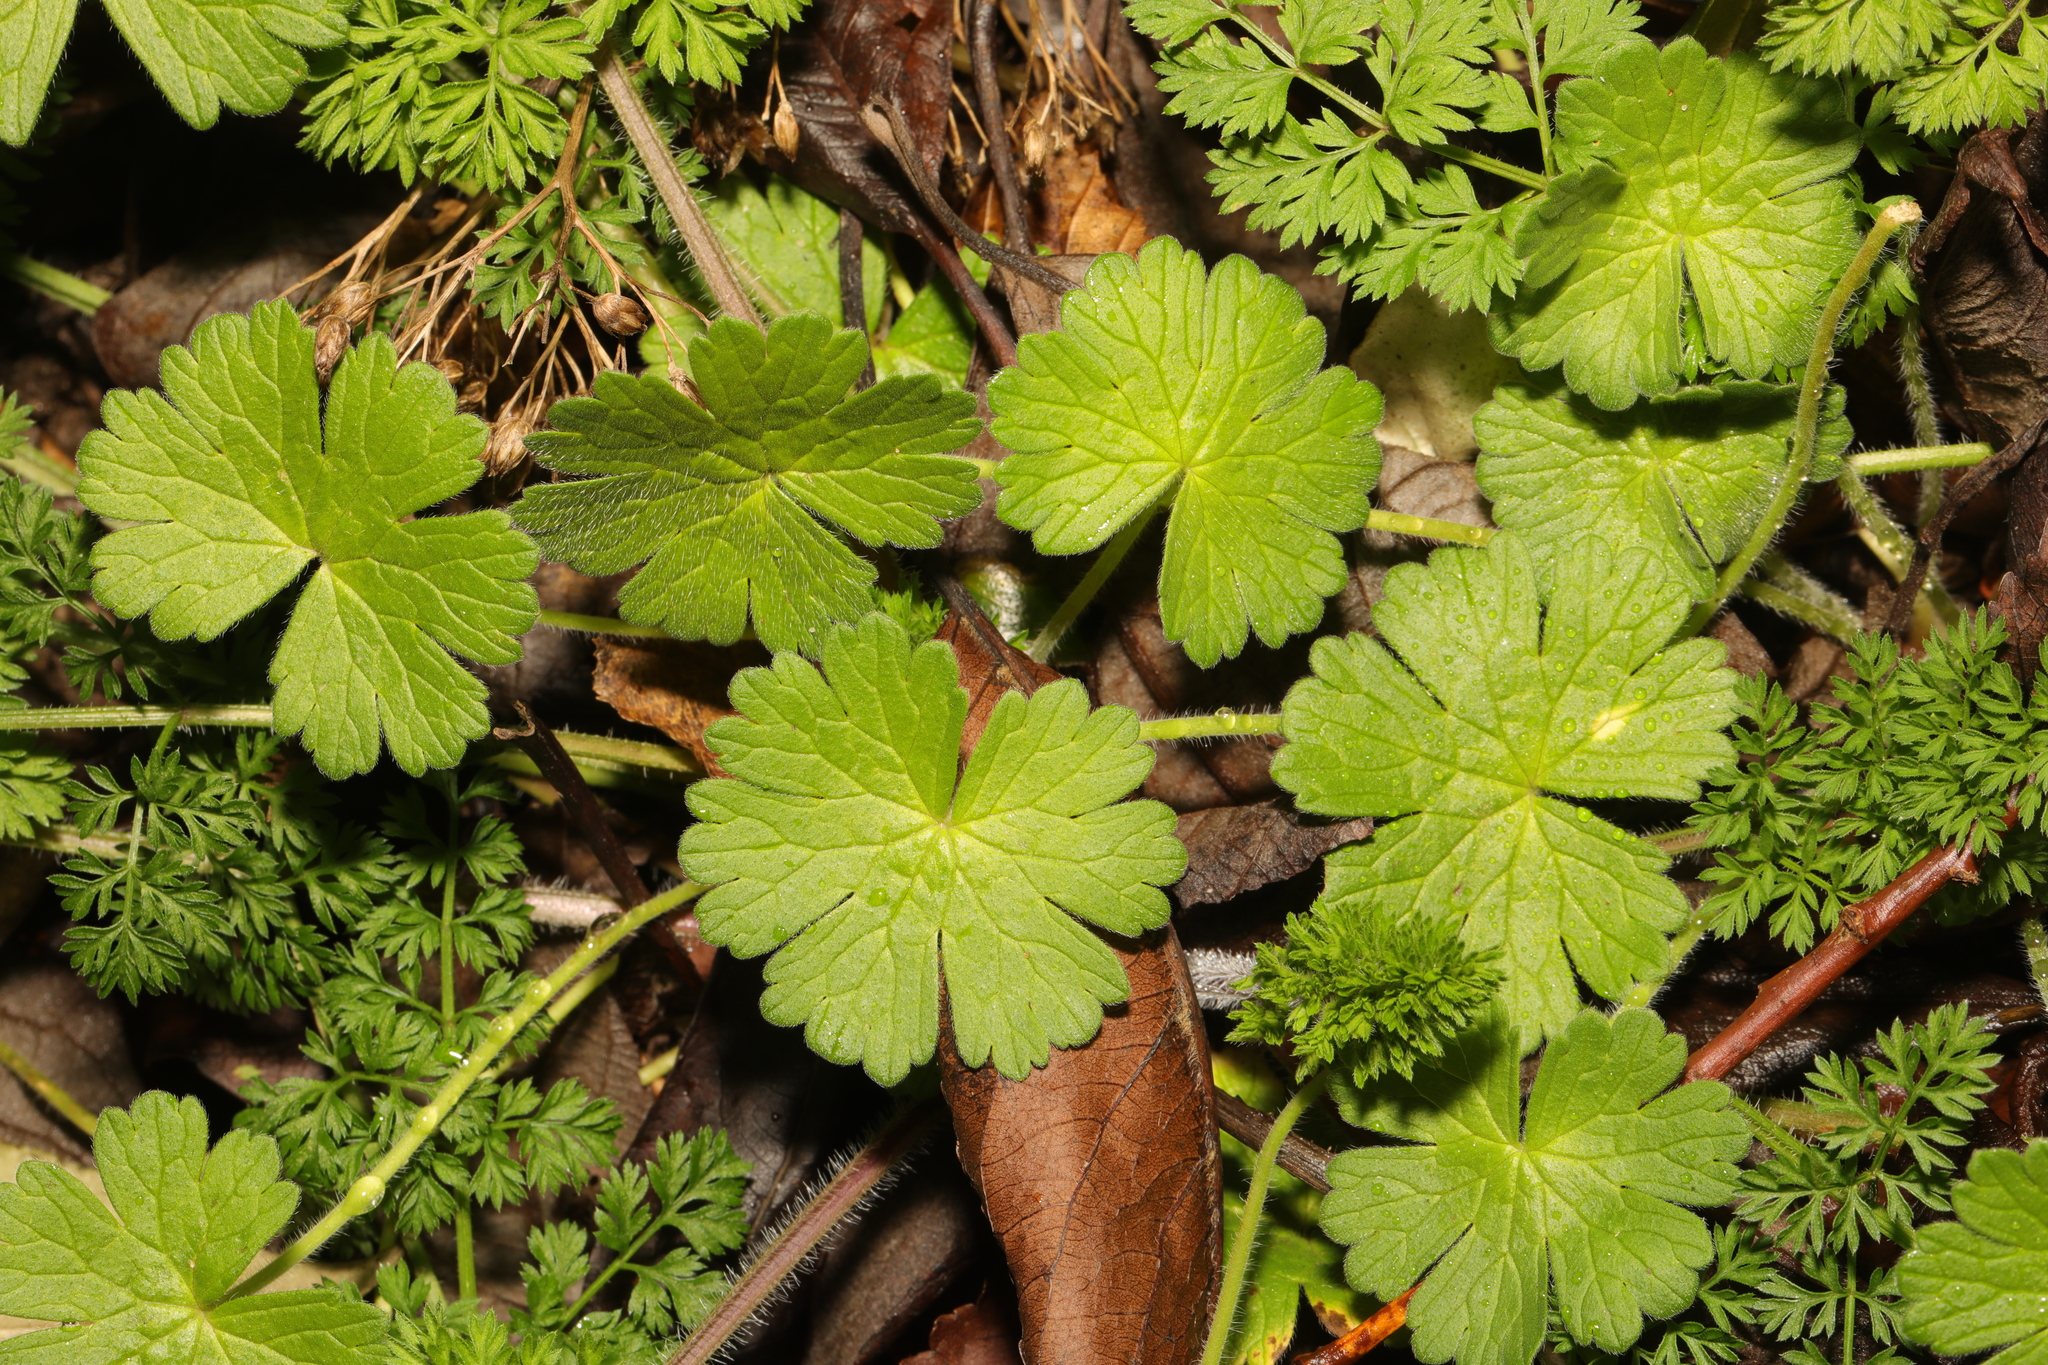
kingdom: Plantae
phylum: Tracheophyta
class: Magnoliopsida
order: Geraniales
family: Geraniaceae
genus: Geranium
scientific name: Geranium pyrenaicum
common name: Hedgerow crane's-bill
